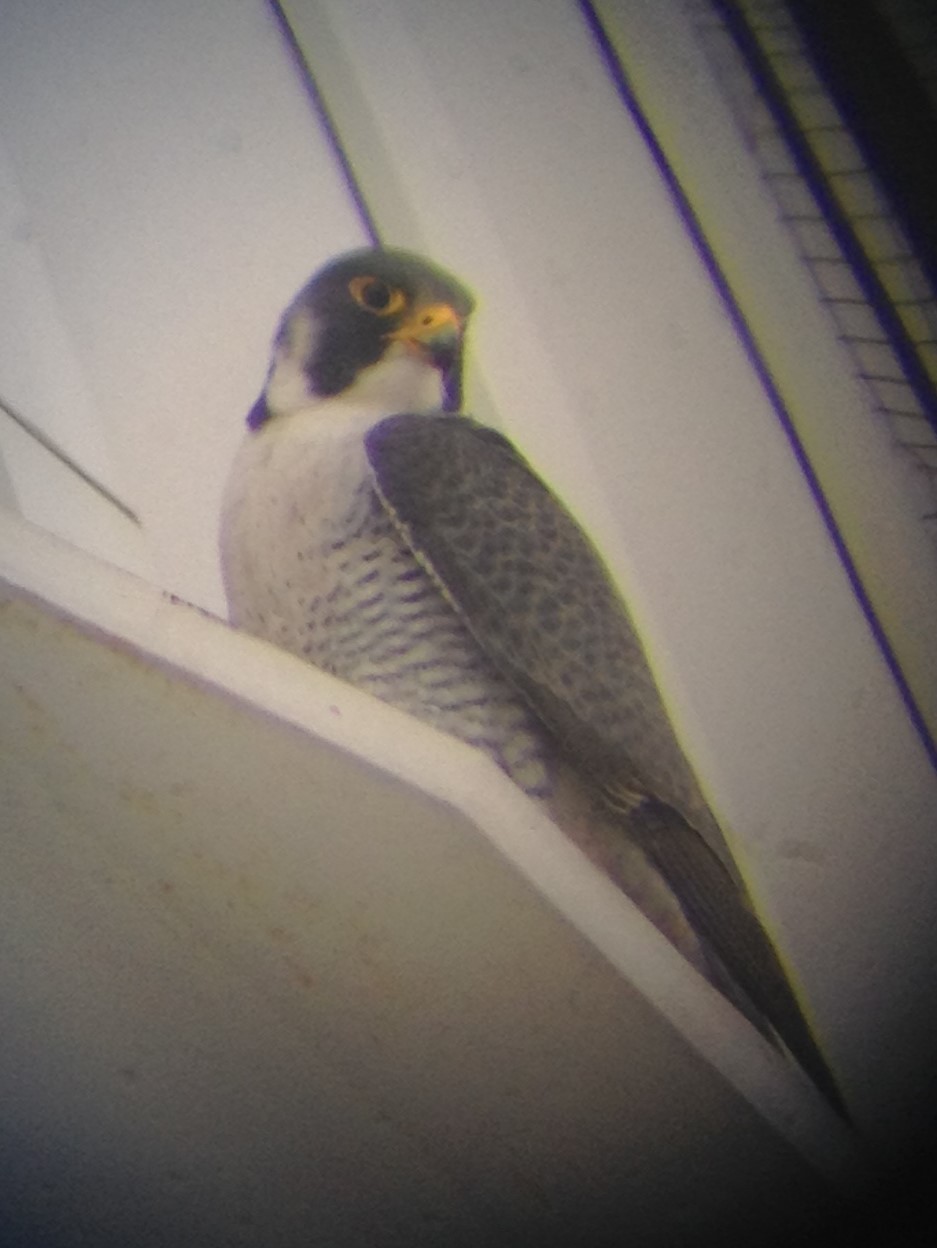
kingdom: Animalia
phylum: Chordata
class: Aves
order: Falconiformes
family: Falconidae
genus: Falco
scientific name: Falco peregrinus
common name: Peregrine falcon
